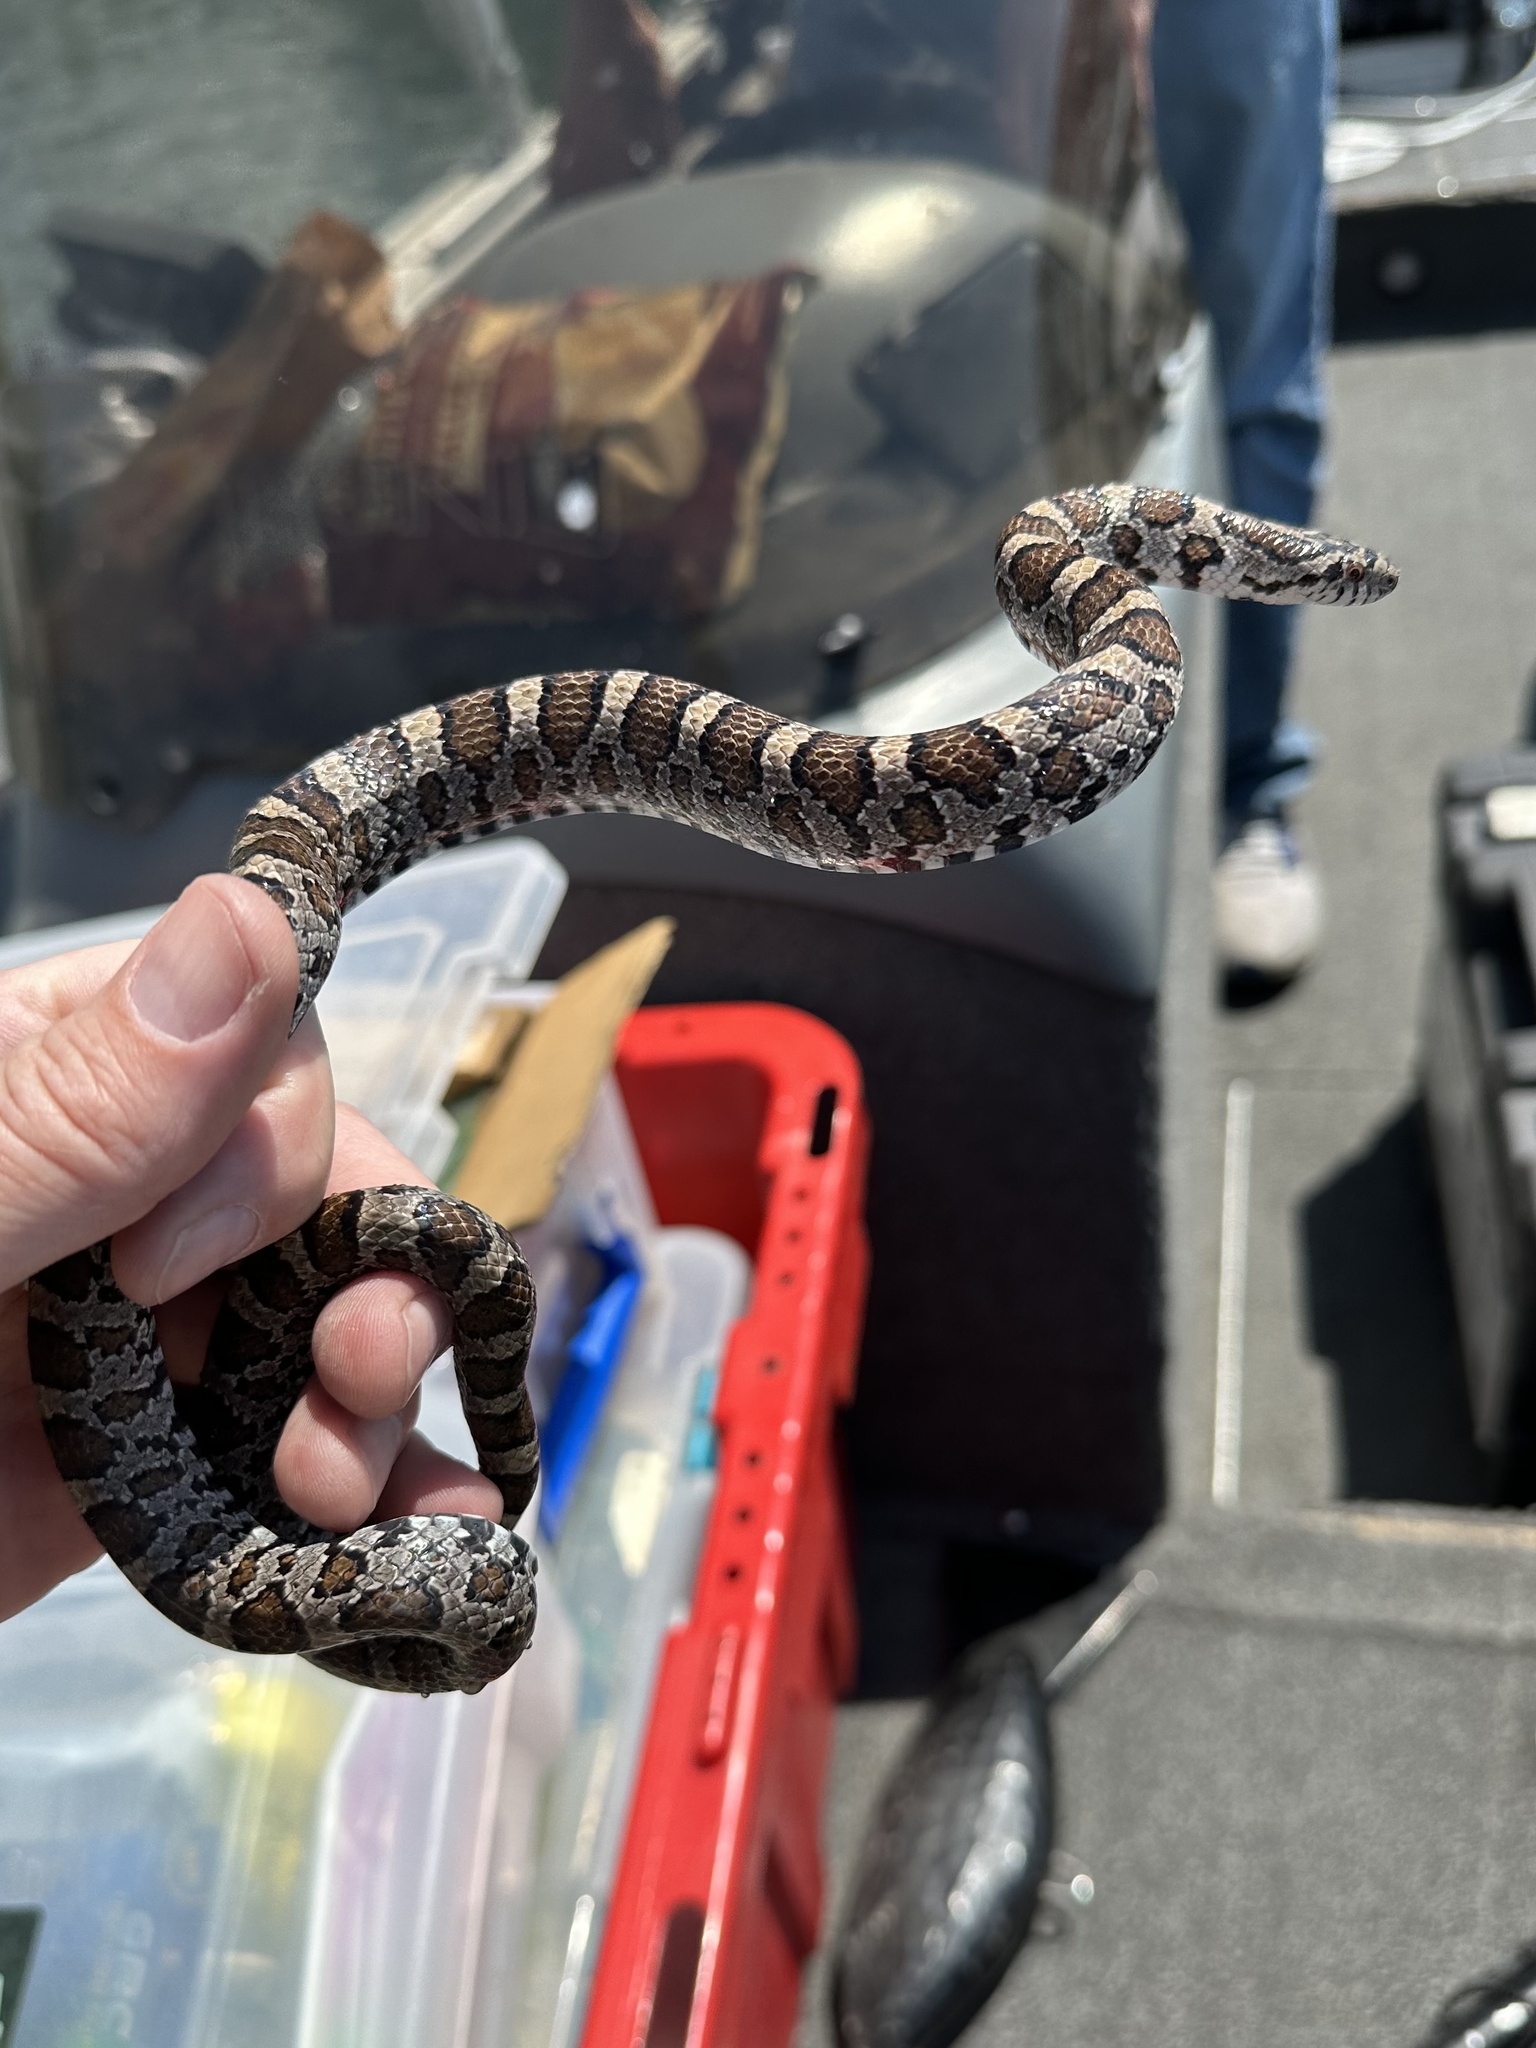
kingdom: Animalia
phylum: Chordata
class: Squamata
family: Colubridae
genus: Lampropeltis
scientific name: Lampropeltis triangulum
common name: Eastern milksnake
